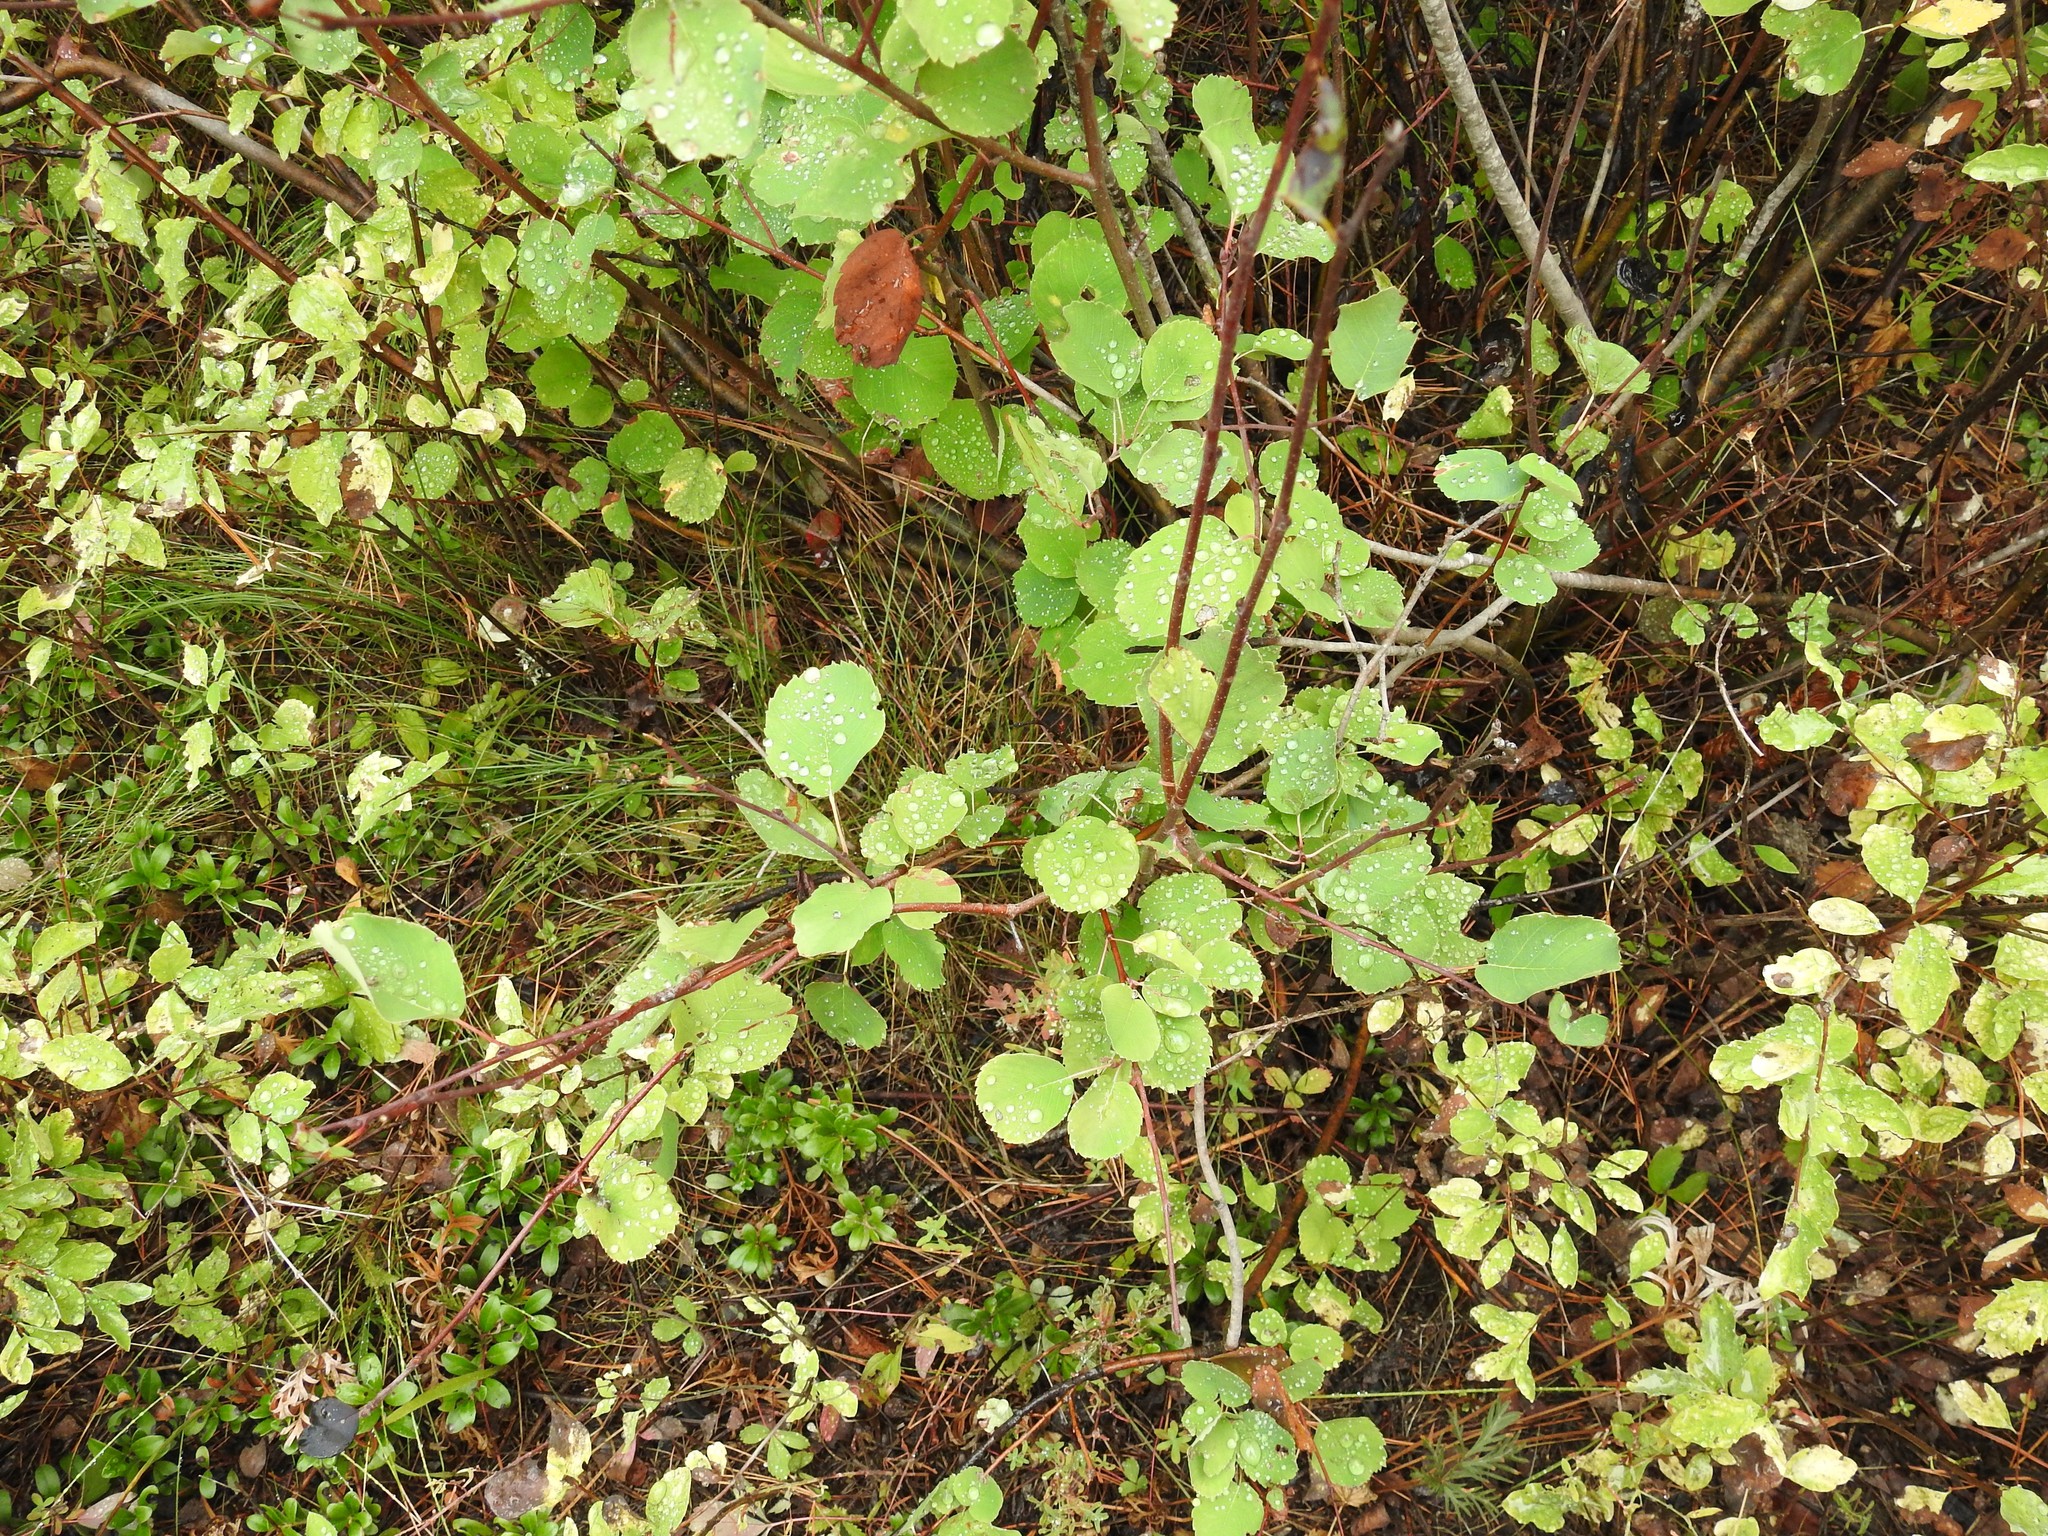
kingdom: Plantae
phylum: Tracheophyta
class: Magnoliopsida
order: Rosales
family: Rosaceae
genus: Amelanchier
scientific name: Amelanchier alnifolia
